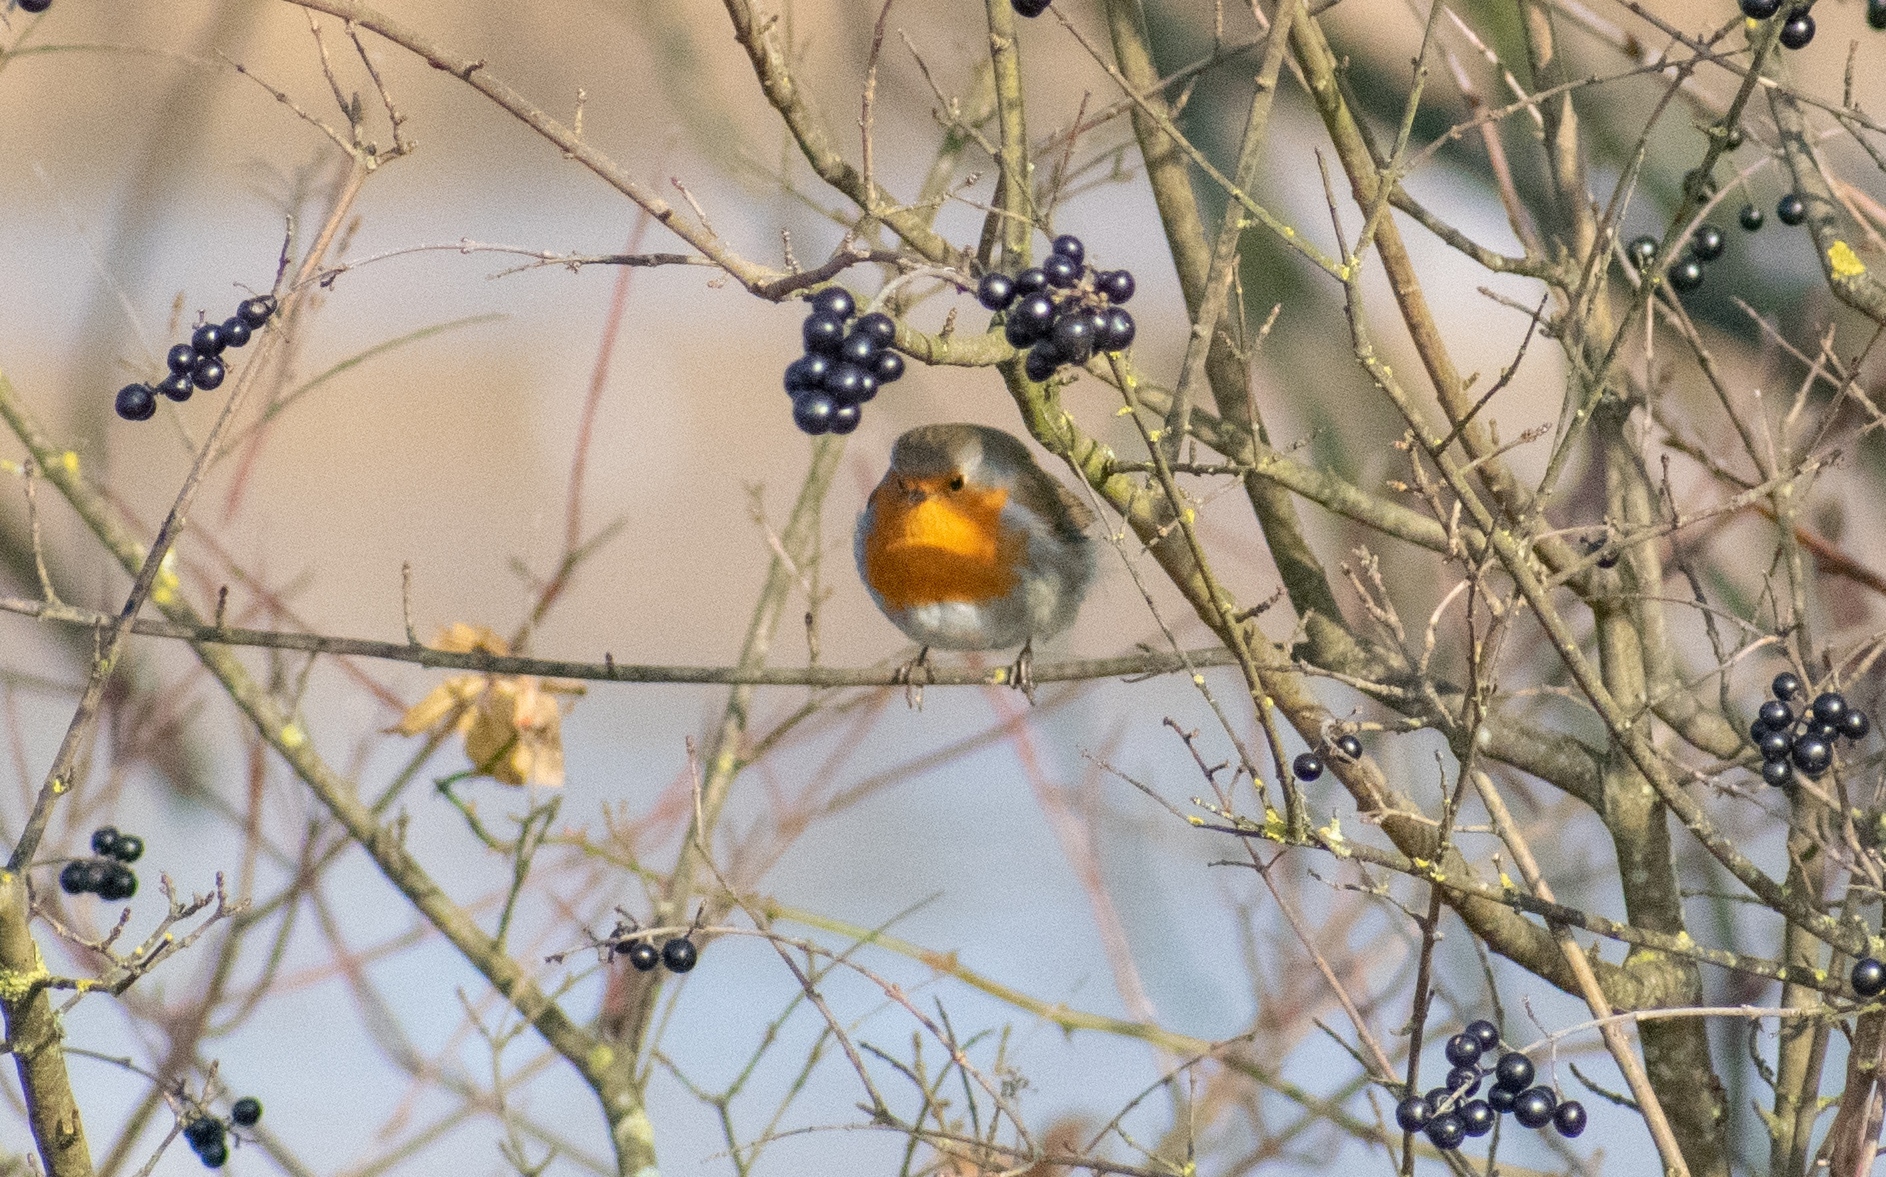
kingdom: Animalia
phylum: Chordata
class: Aves
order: Passeriformes
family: Muscicapidae
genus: Erithacus
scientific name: Erithacus rubecula
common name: European robin
